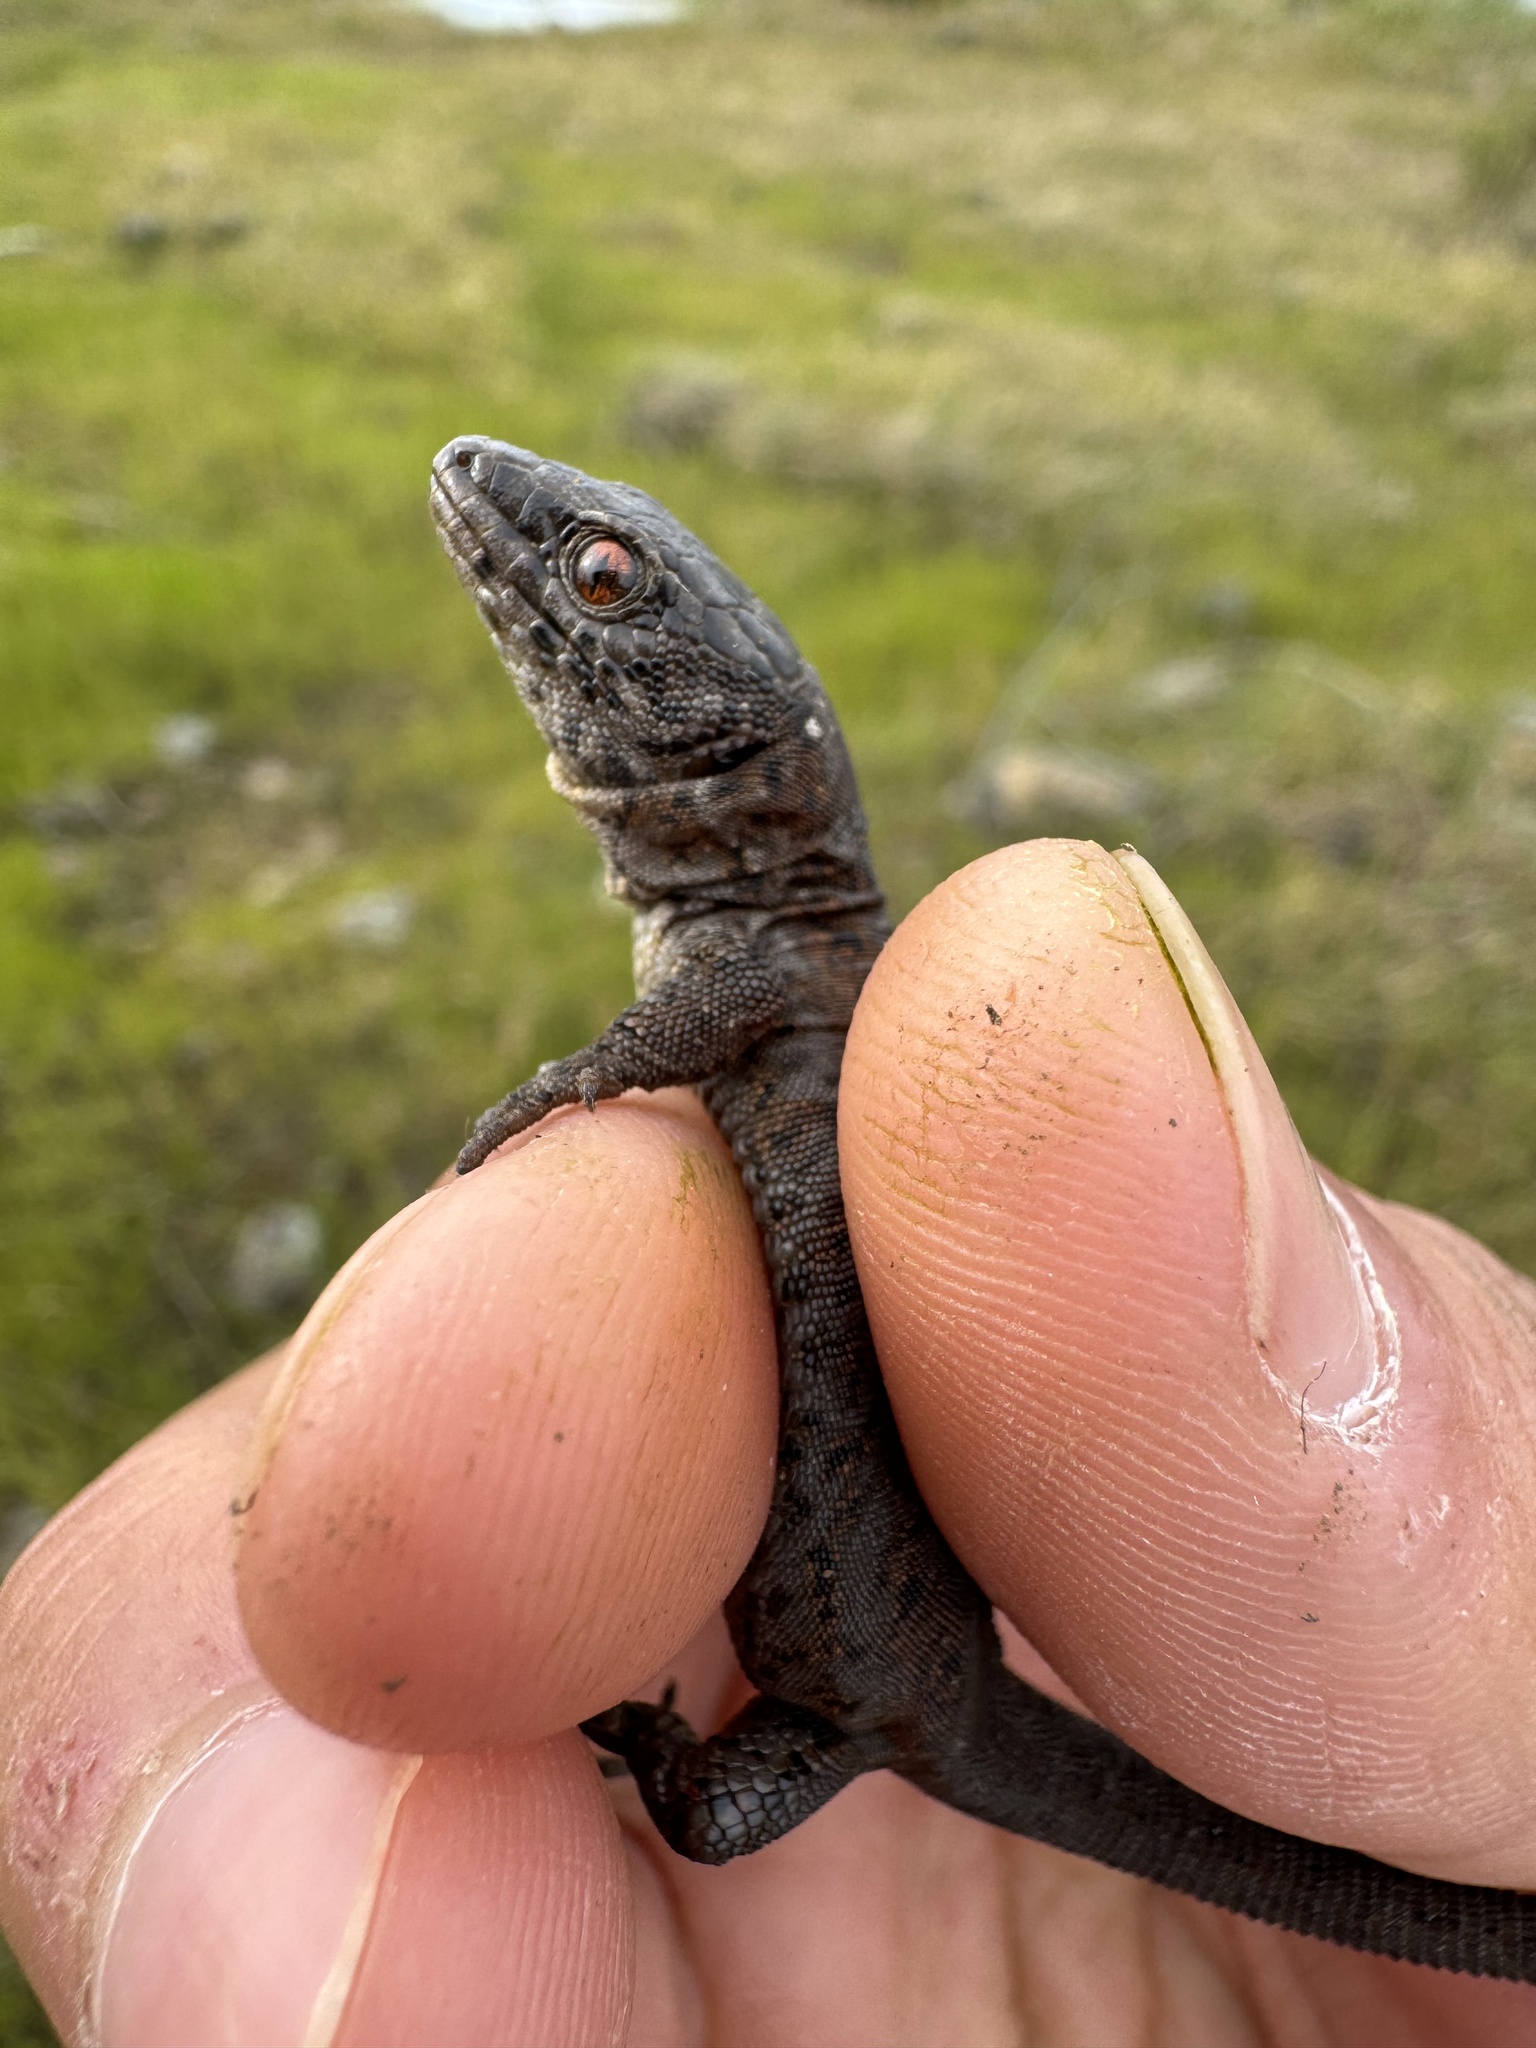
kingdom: Animalia
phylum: Chordata
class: Squamata
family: Xantusiidae
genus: Xantusia
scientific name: Xantusia riversiana
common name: Island night lizard
